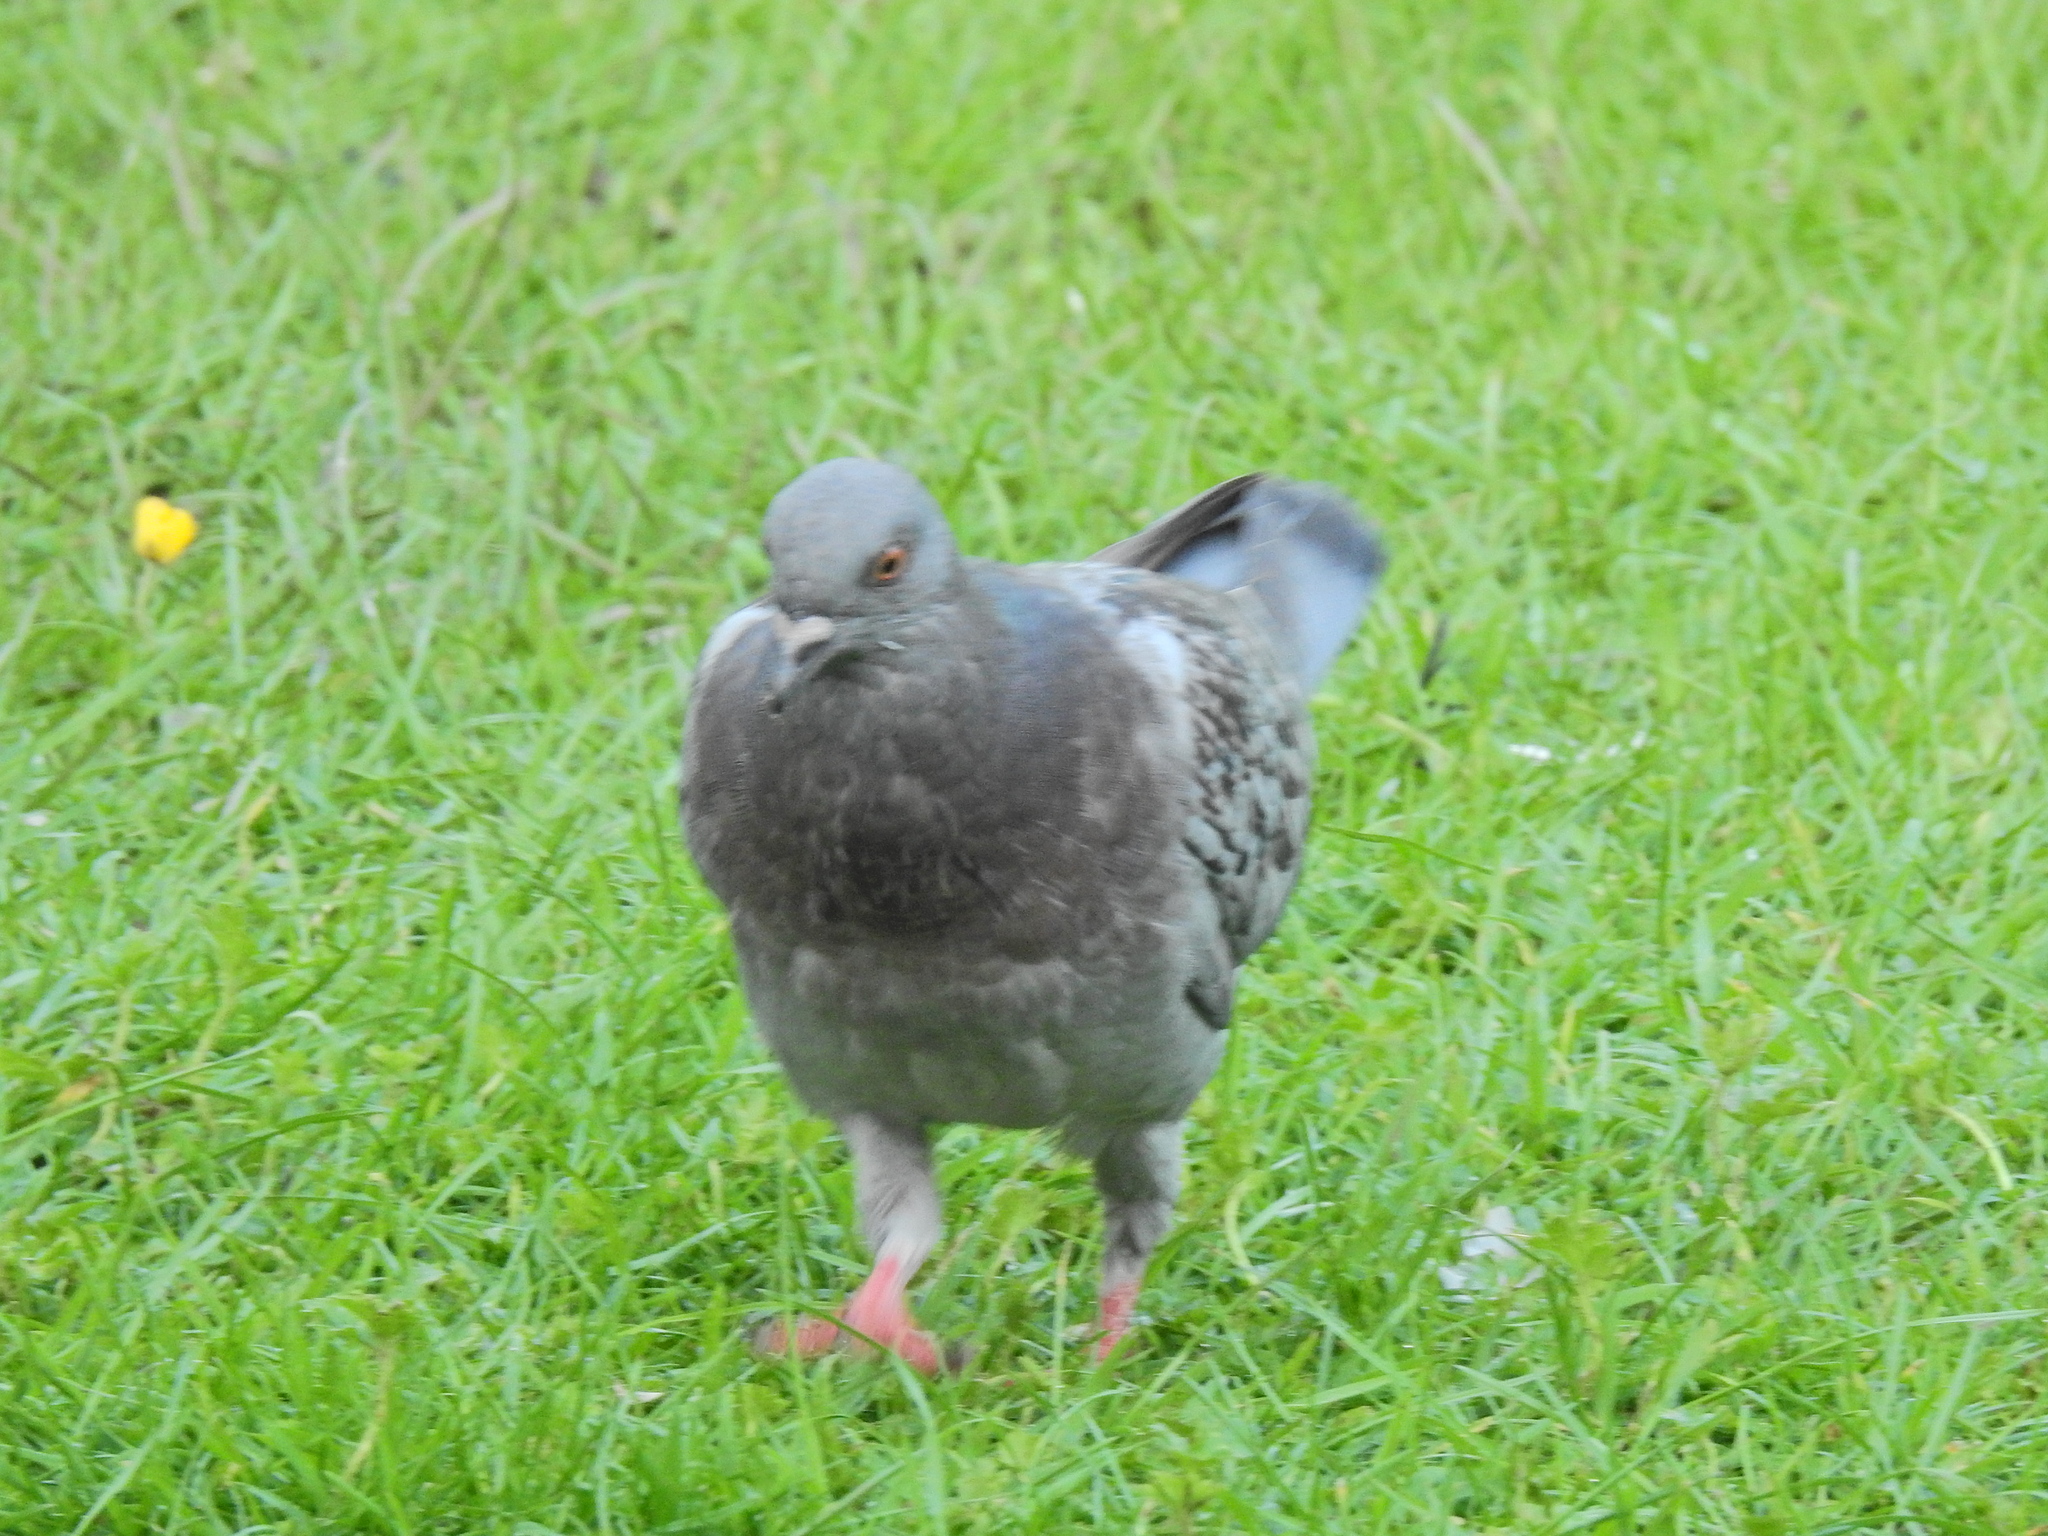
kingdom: Animalia
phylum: Chordata
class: Aves
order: Columbiformes
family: Columbidae
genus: Columba
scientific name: Columba livia
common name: Rock pigeon
